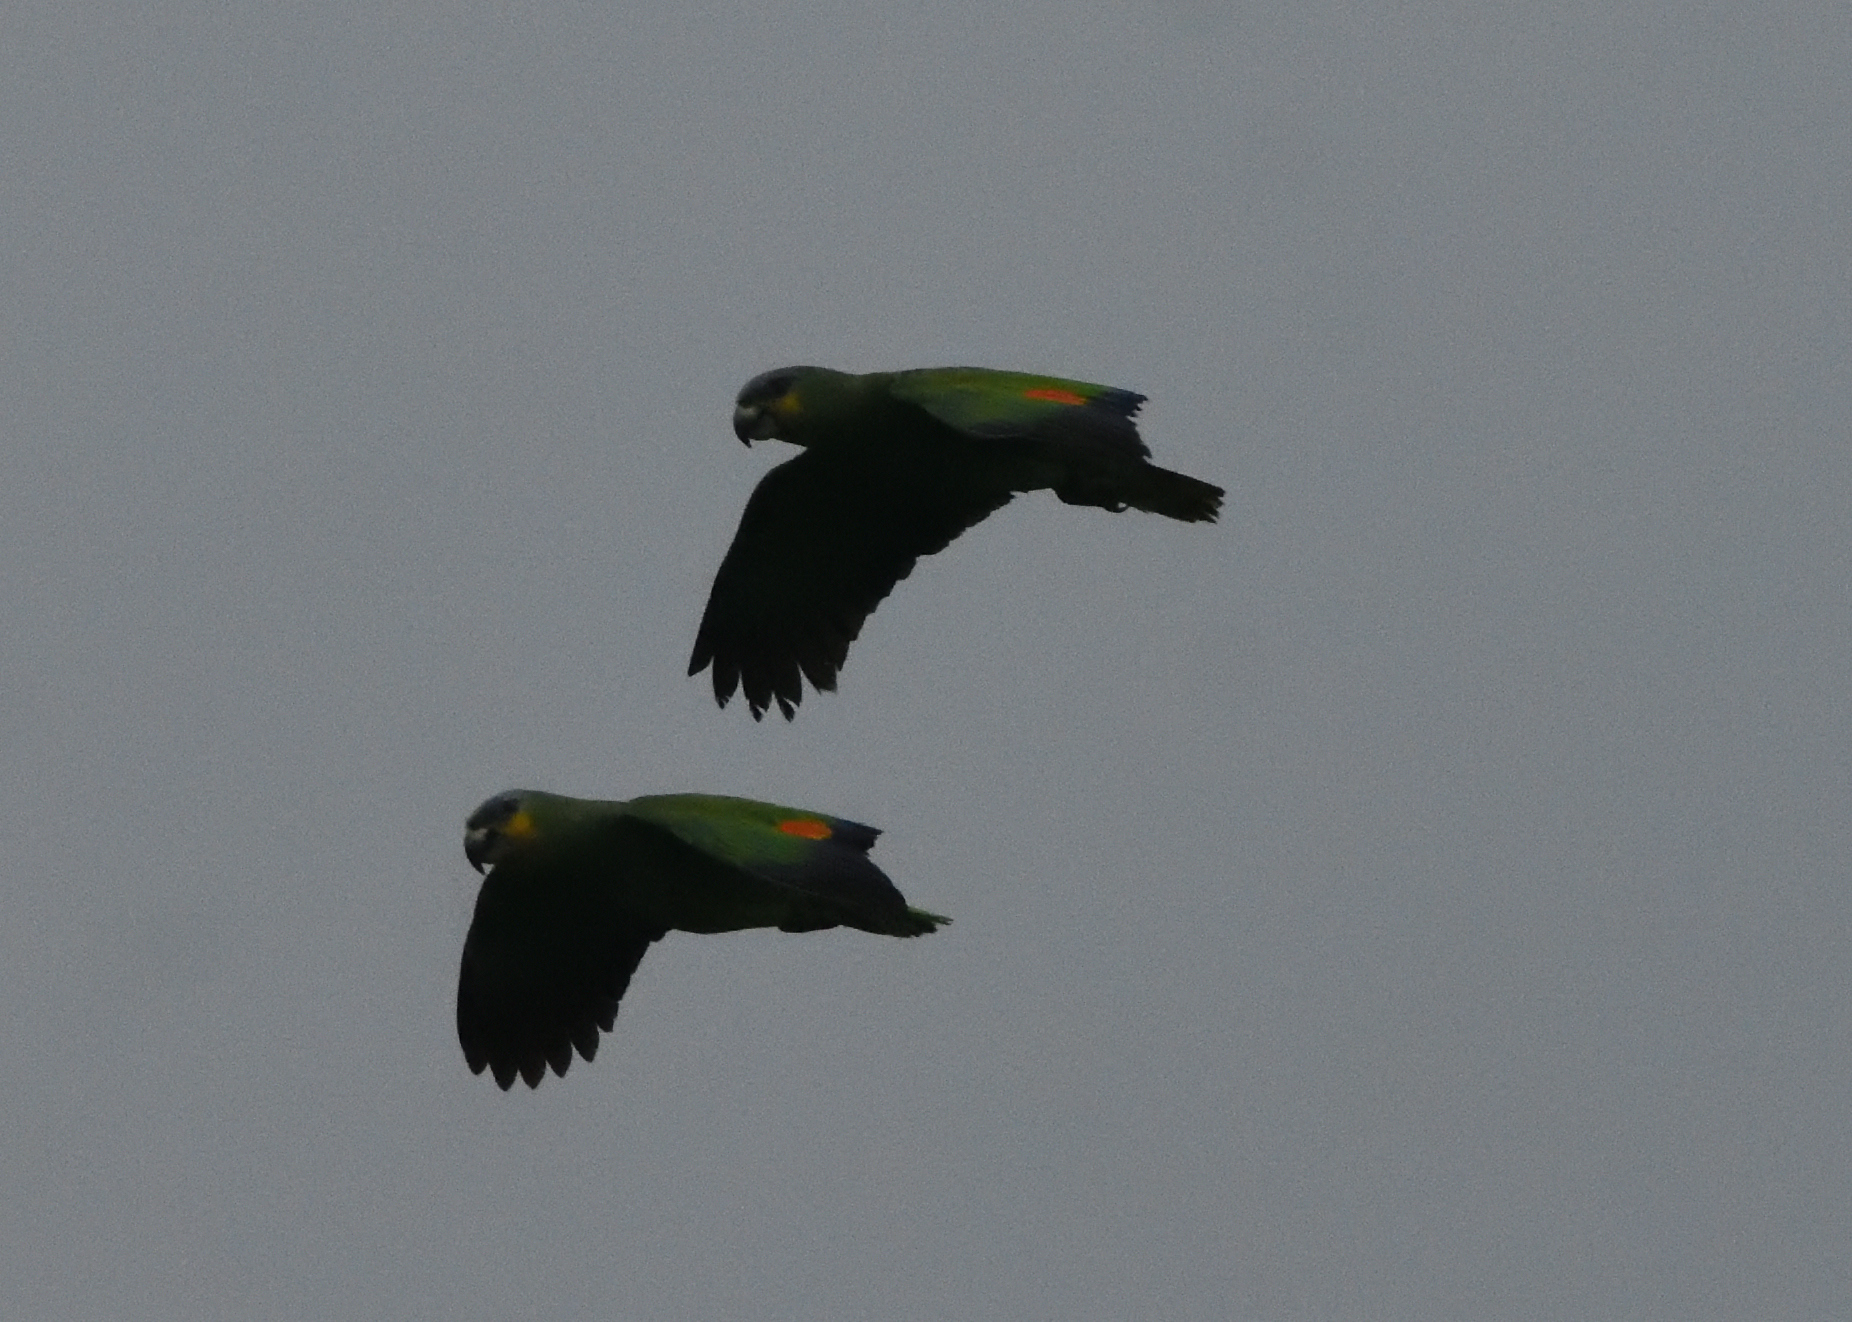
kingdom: Animalia
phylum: Chordata
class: Aves
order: Psittaciformes
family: Psittacidae
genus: Amazona
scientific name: Amazona amazonica
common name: Orange-winged amazon
